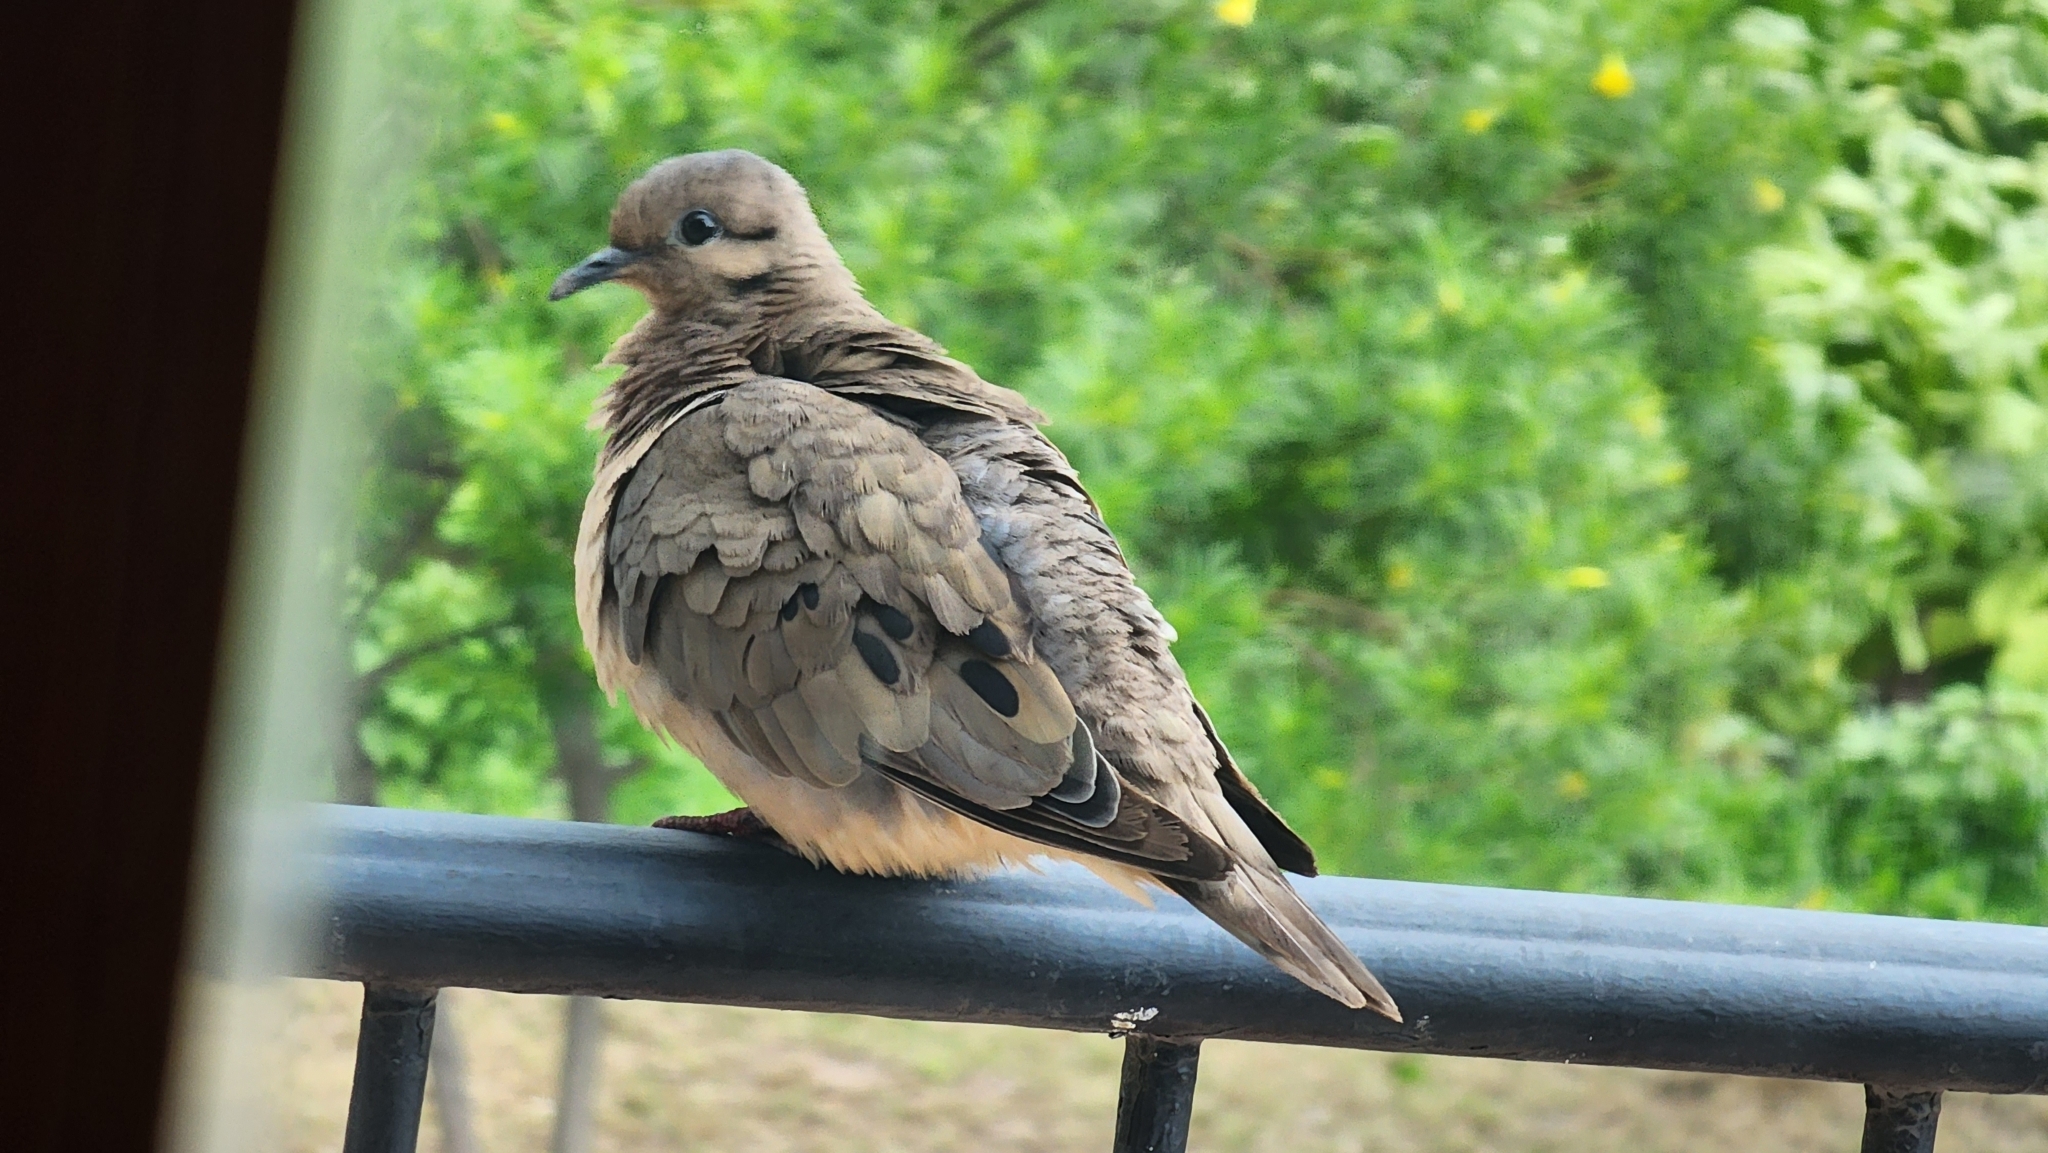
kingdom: Animalia
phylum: Chordata
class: Aves
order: Columbiformes
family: Columbidae
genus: Zenaida
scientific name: Zenaida auriculata
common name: Eared dove
